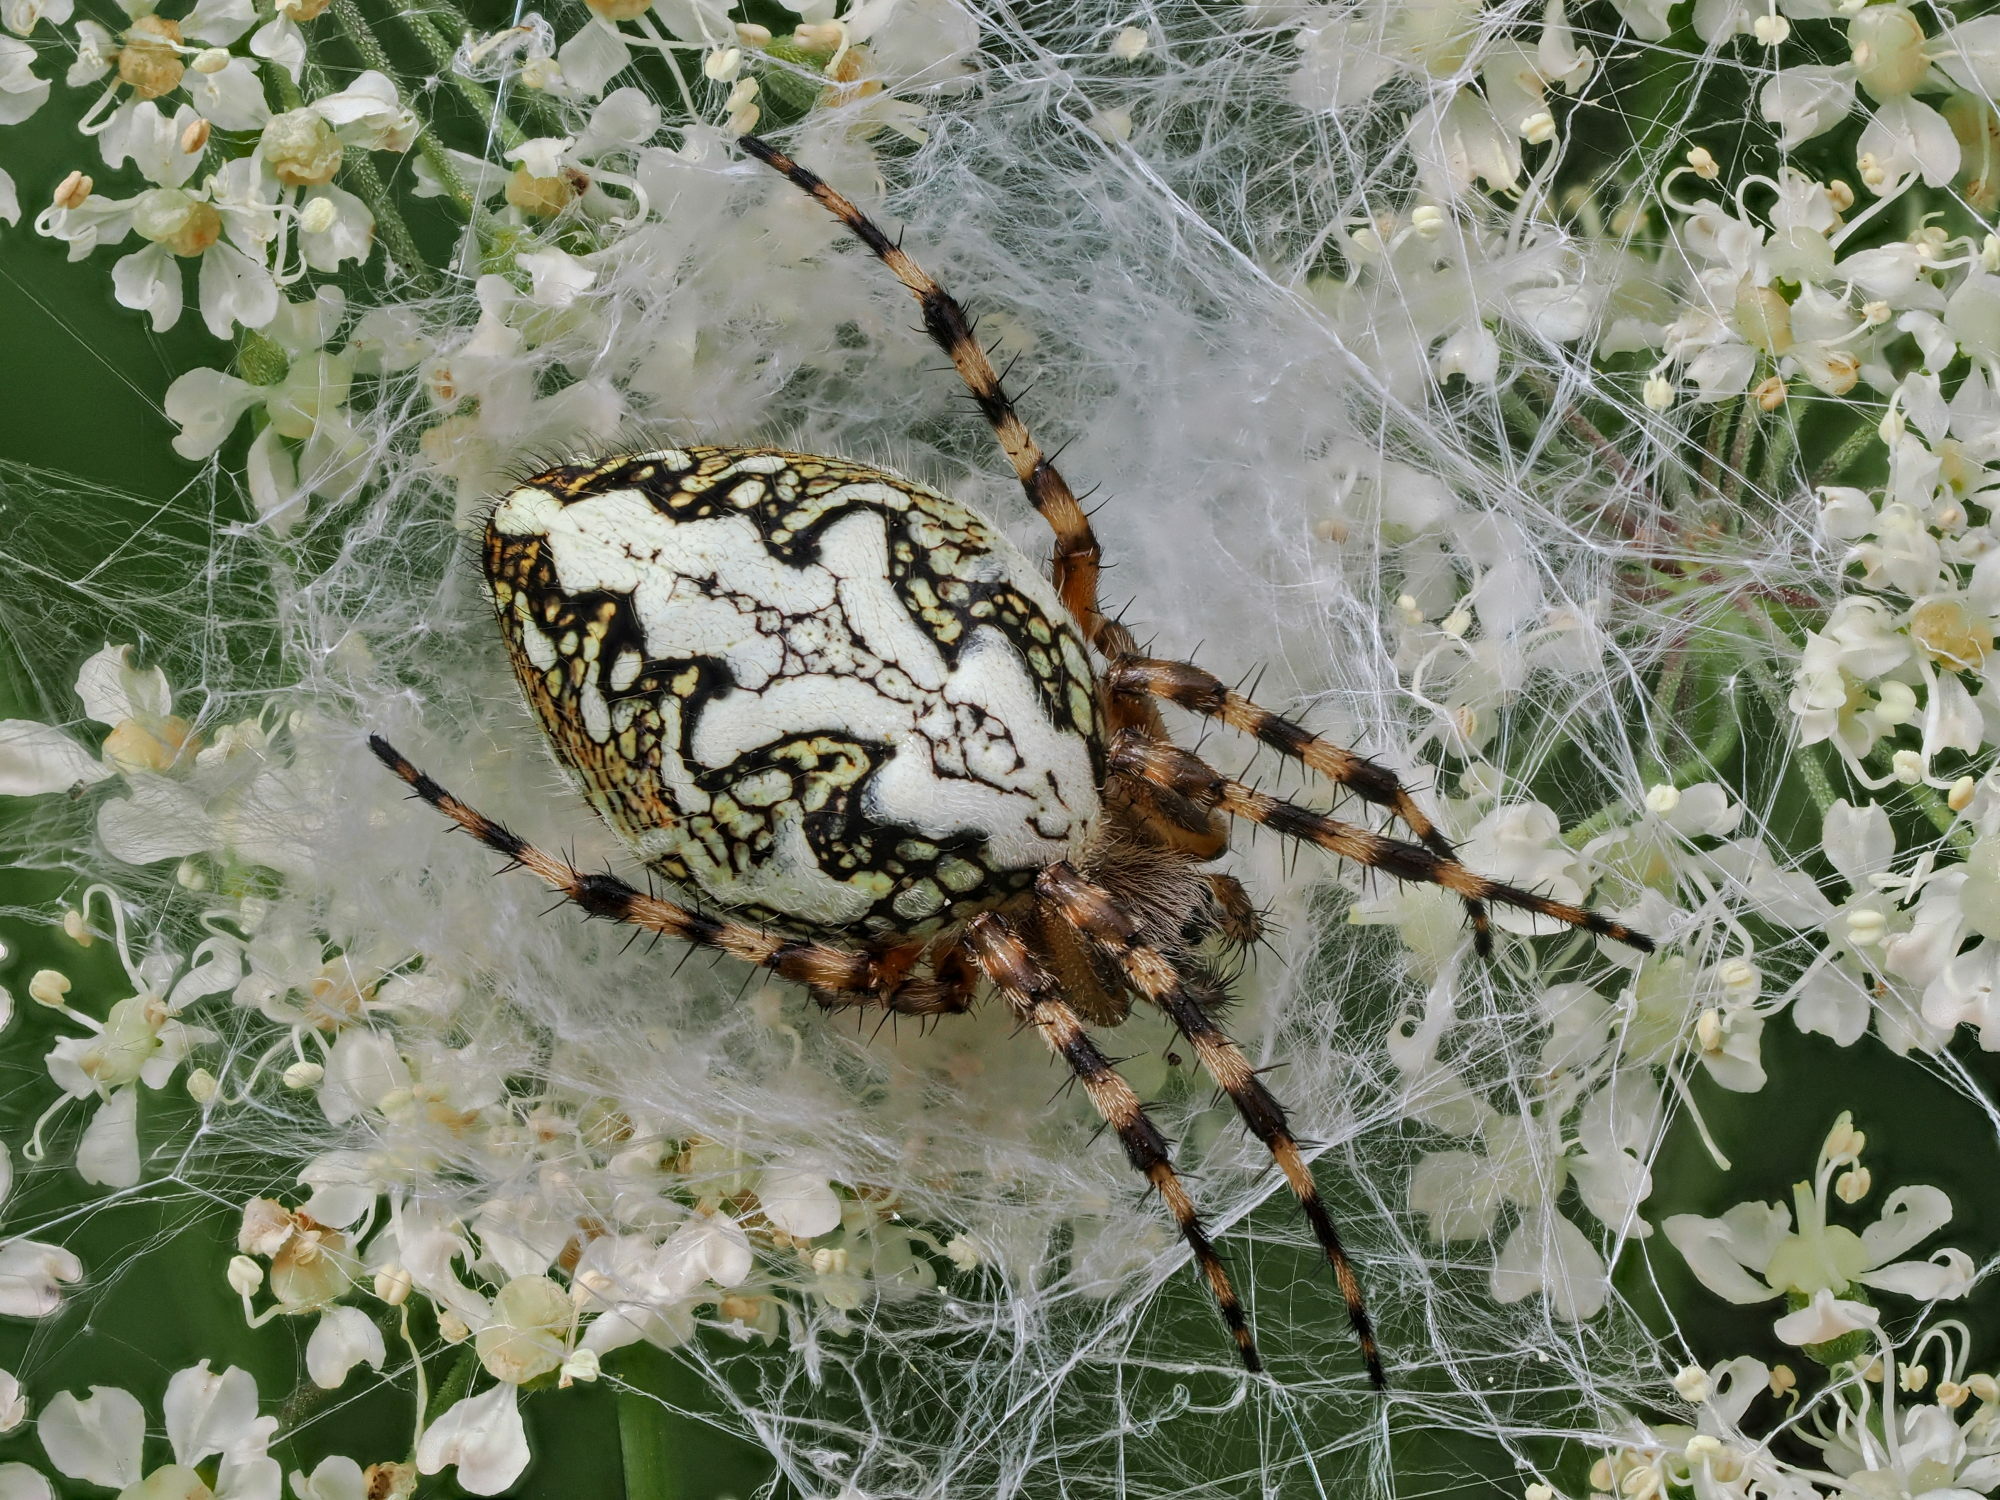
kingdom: Animalia
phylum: Arthropoda
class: Arachnida
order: Araneae
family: Araneidae
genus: Aculepeira
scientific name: Aculepeira ceropegia
